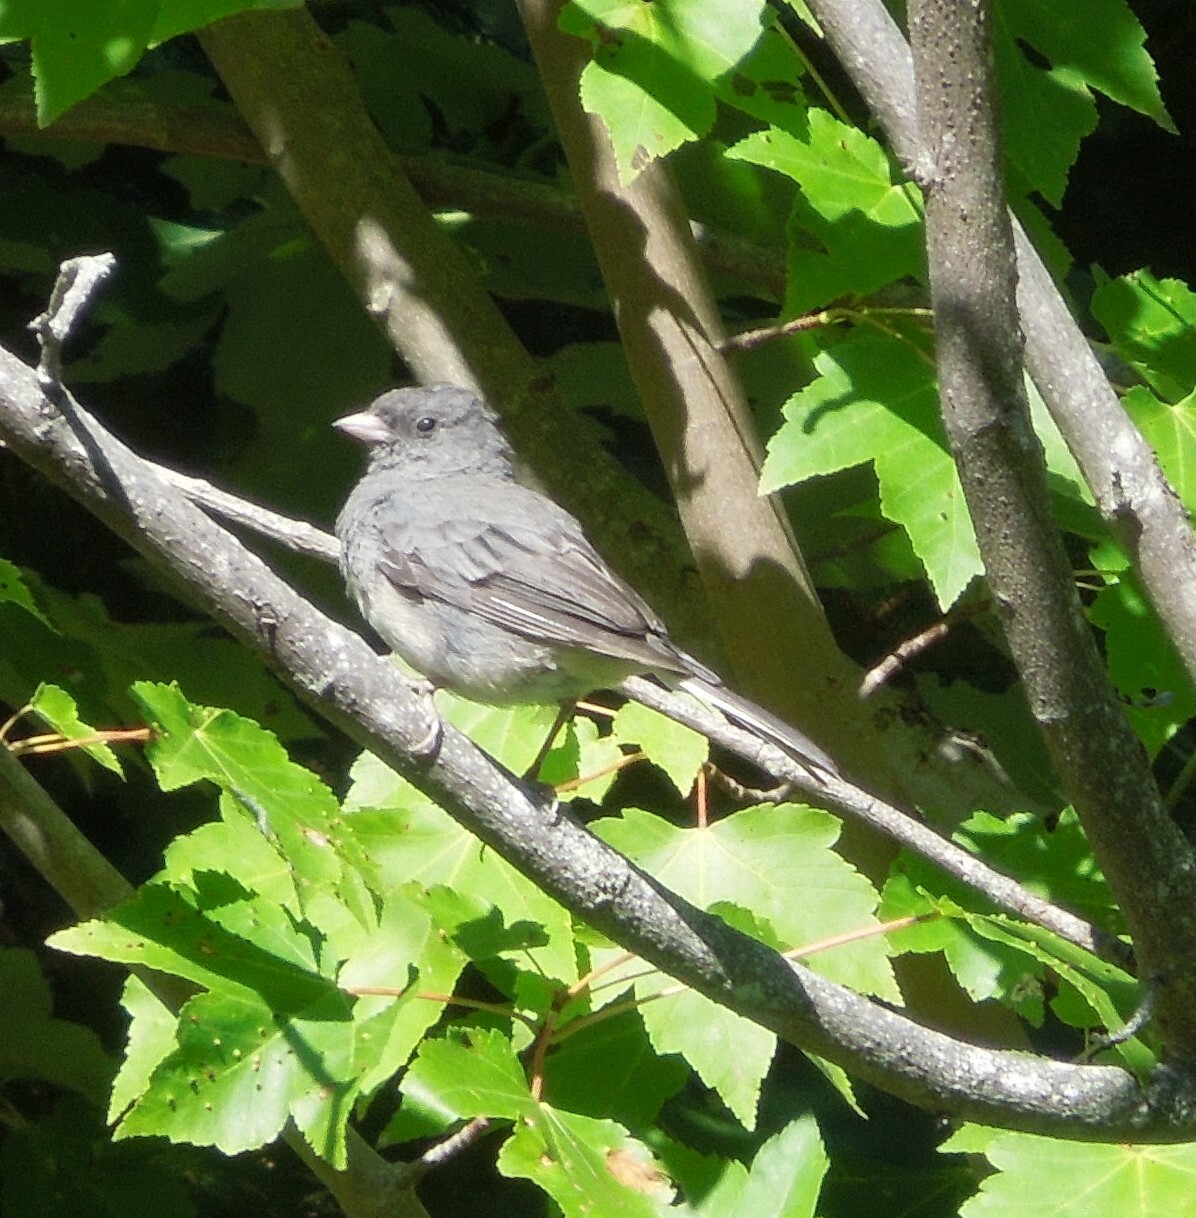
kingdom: Animalia
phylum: Chordata
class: Aves
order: Passeriformes
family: Passerellidae
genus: Junco
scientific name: Junco hyemalis
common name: Dark-eyed junco
